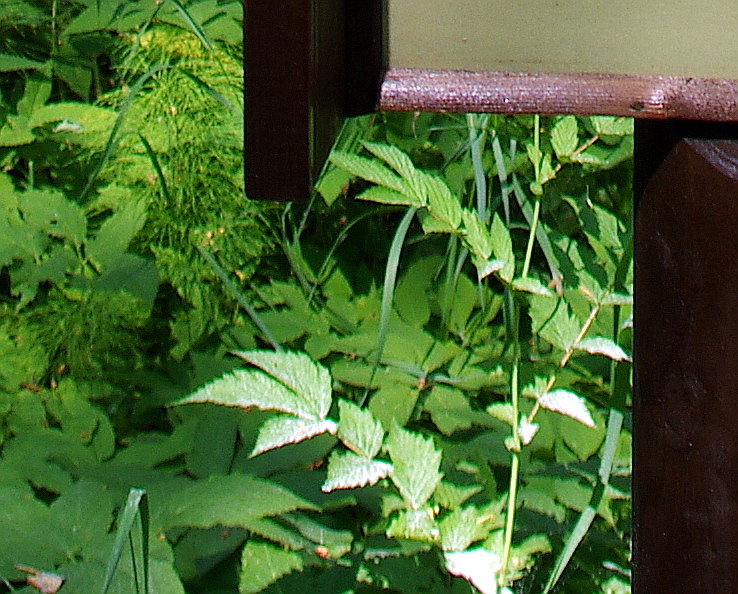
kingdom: Plantae
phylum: Tracheophyta
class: Polypodiopsida
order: Equisetales
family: Equisetaceae
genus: Equisetum
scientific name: Equisetum sylvaticum
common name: Wood horsetail
